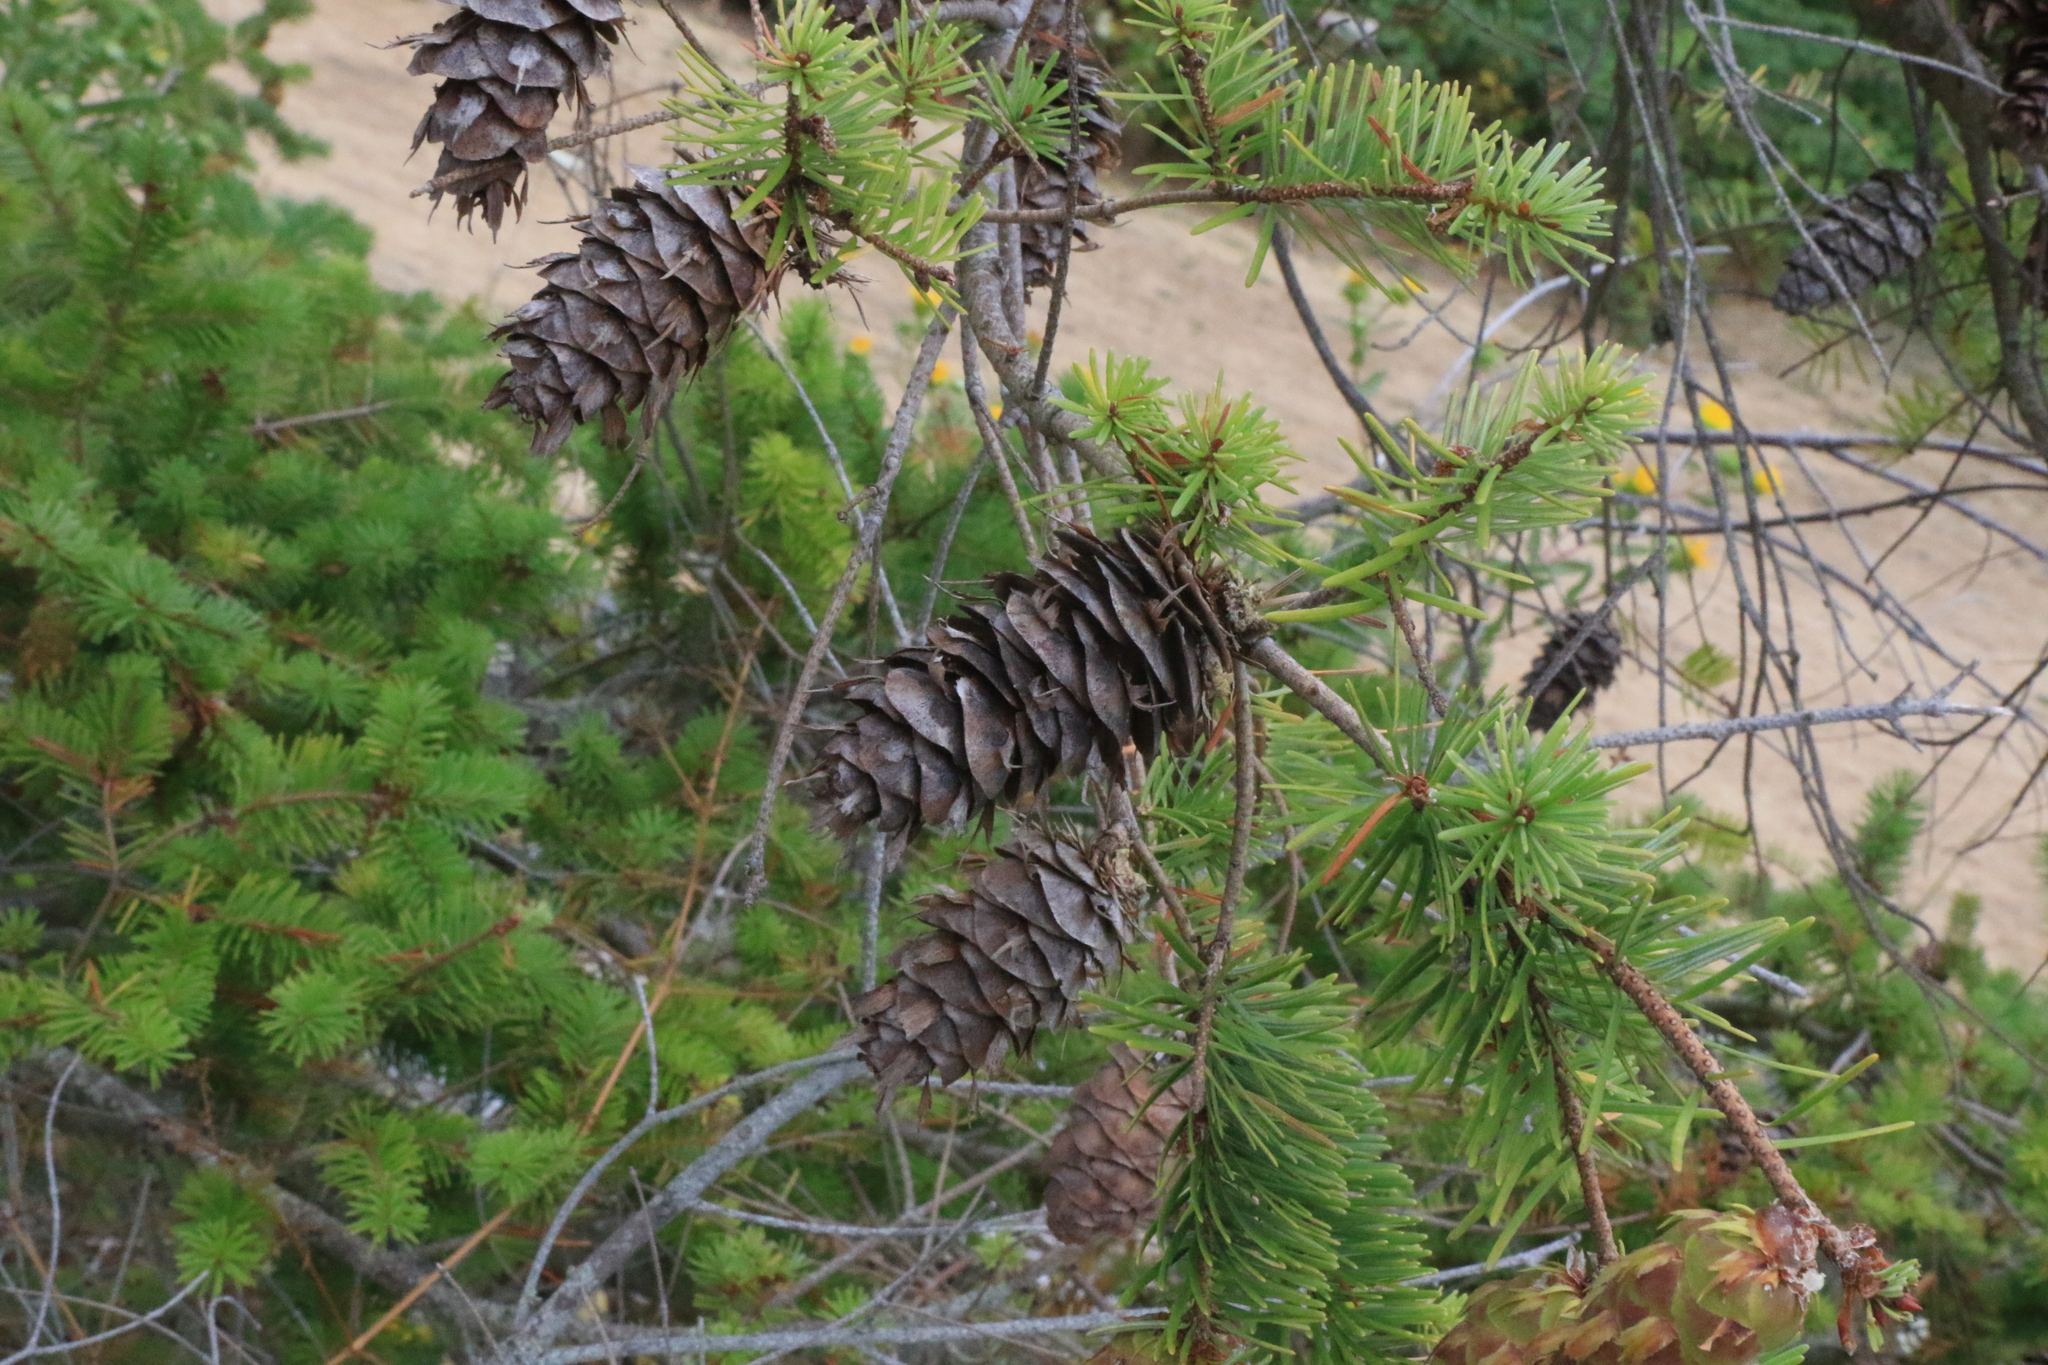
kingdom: Plantae
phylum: Tracheophyta
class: Pinopsida
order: Pinales
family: Pinaceae
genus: Pseudotsuga
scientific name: Pseudotsuga menziesii
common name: Douglas fir
